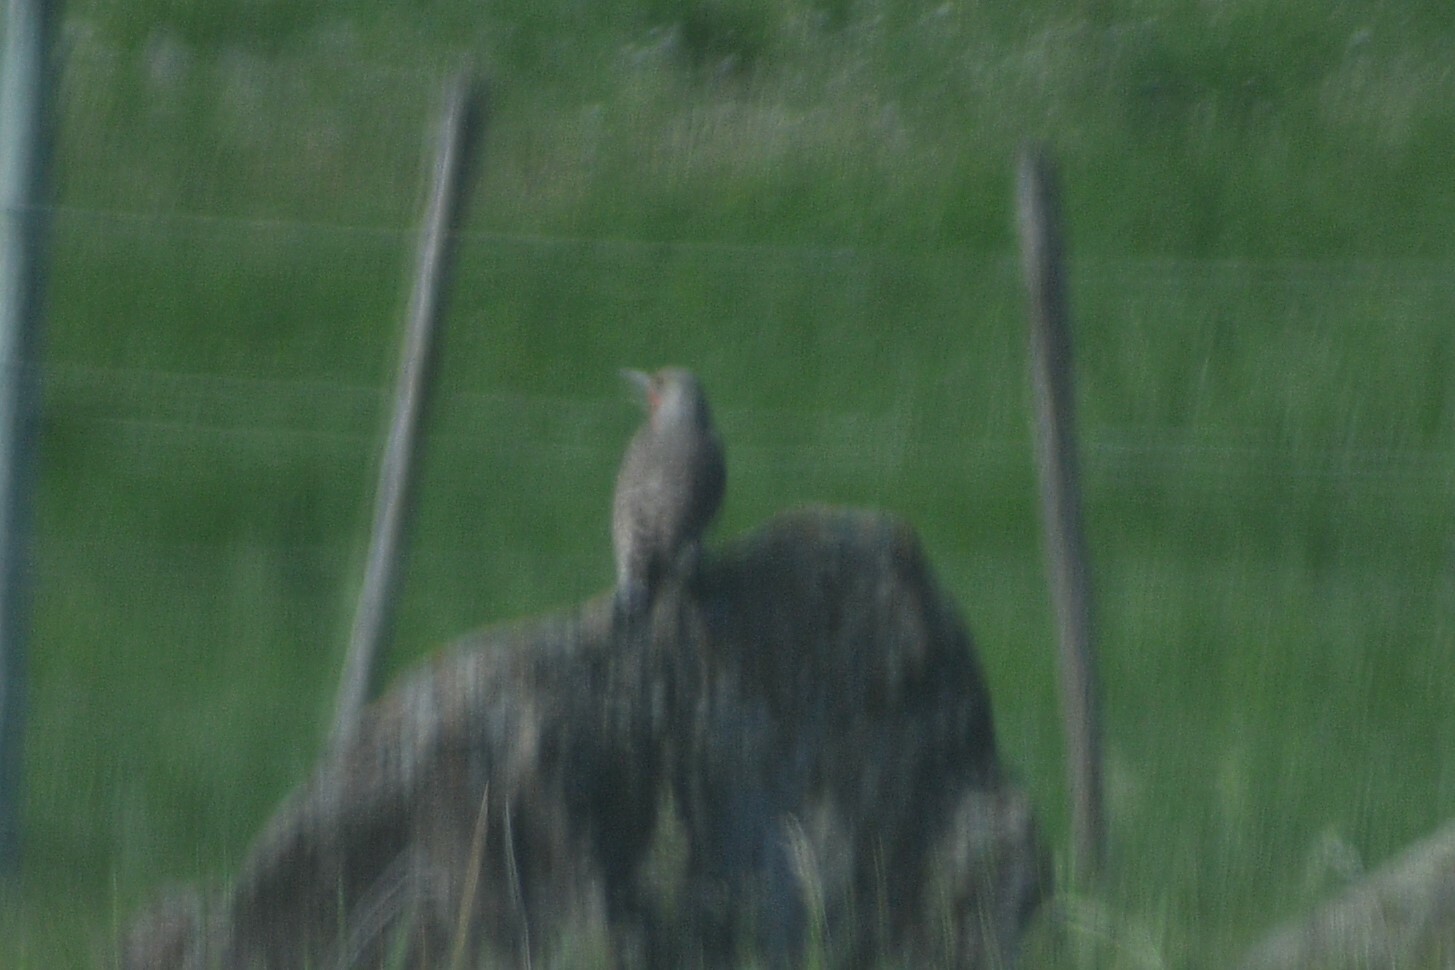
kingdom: Animalia
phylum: Chordata
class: Aves
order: Piciformes
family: Picidae
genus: Colaptes
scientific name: Colaptes auratus
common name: Northern flicker
